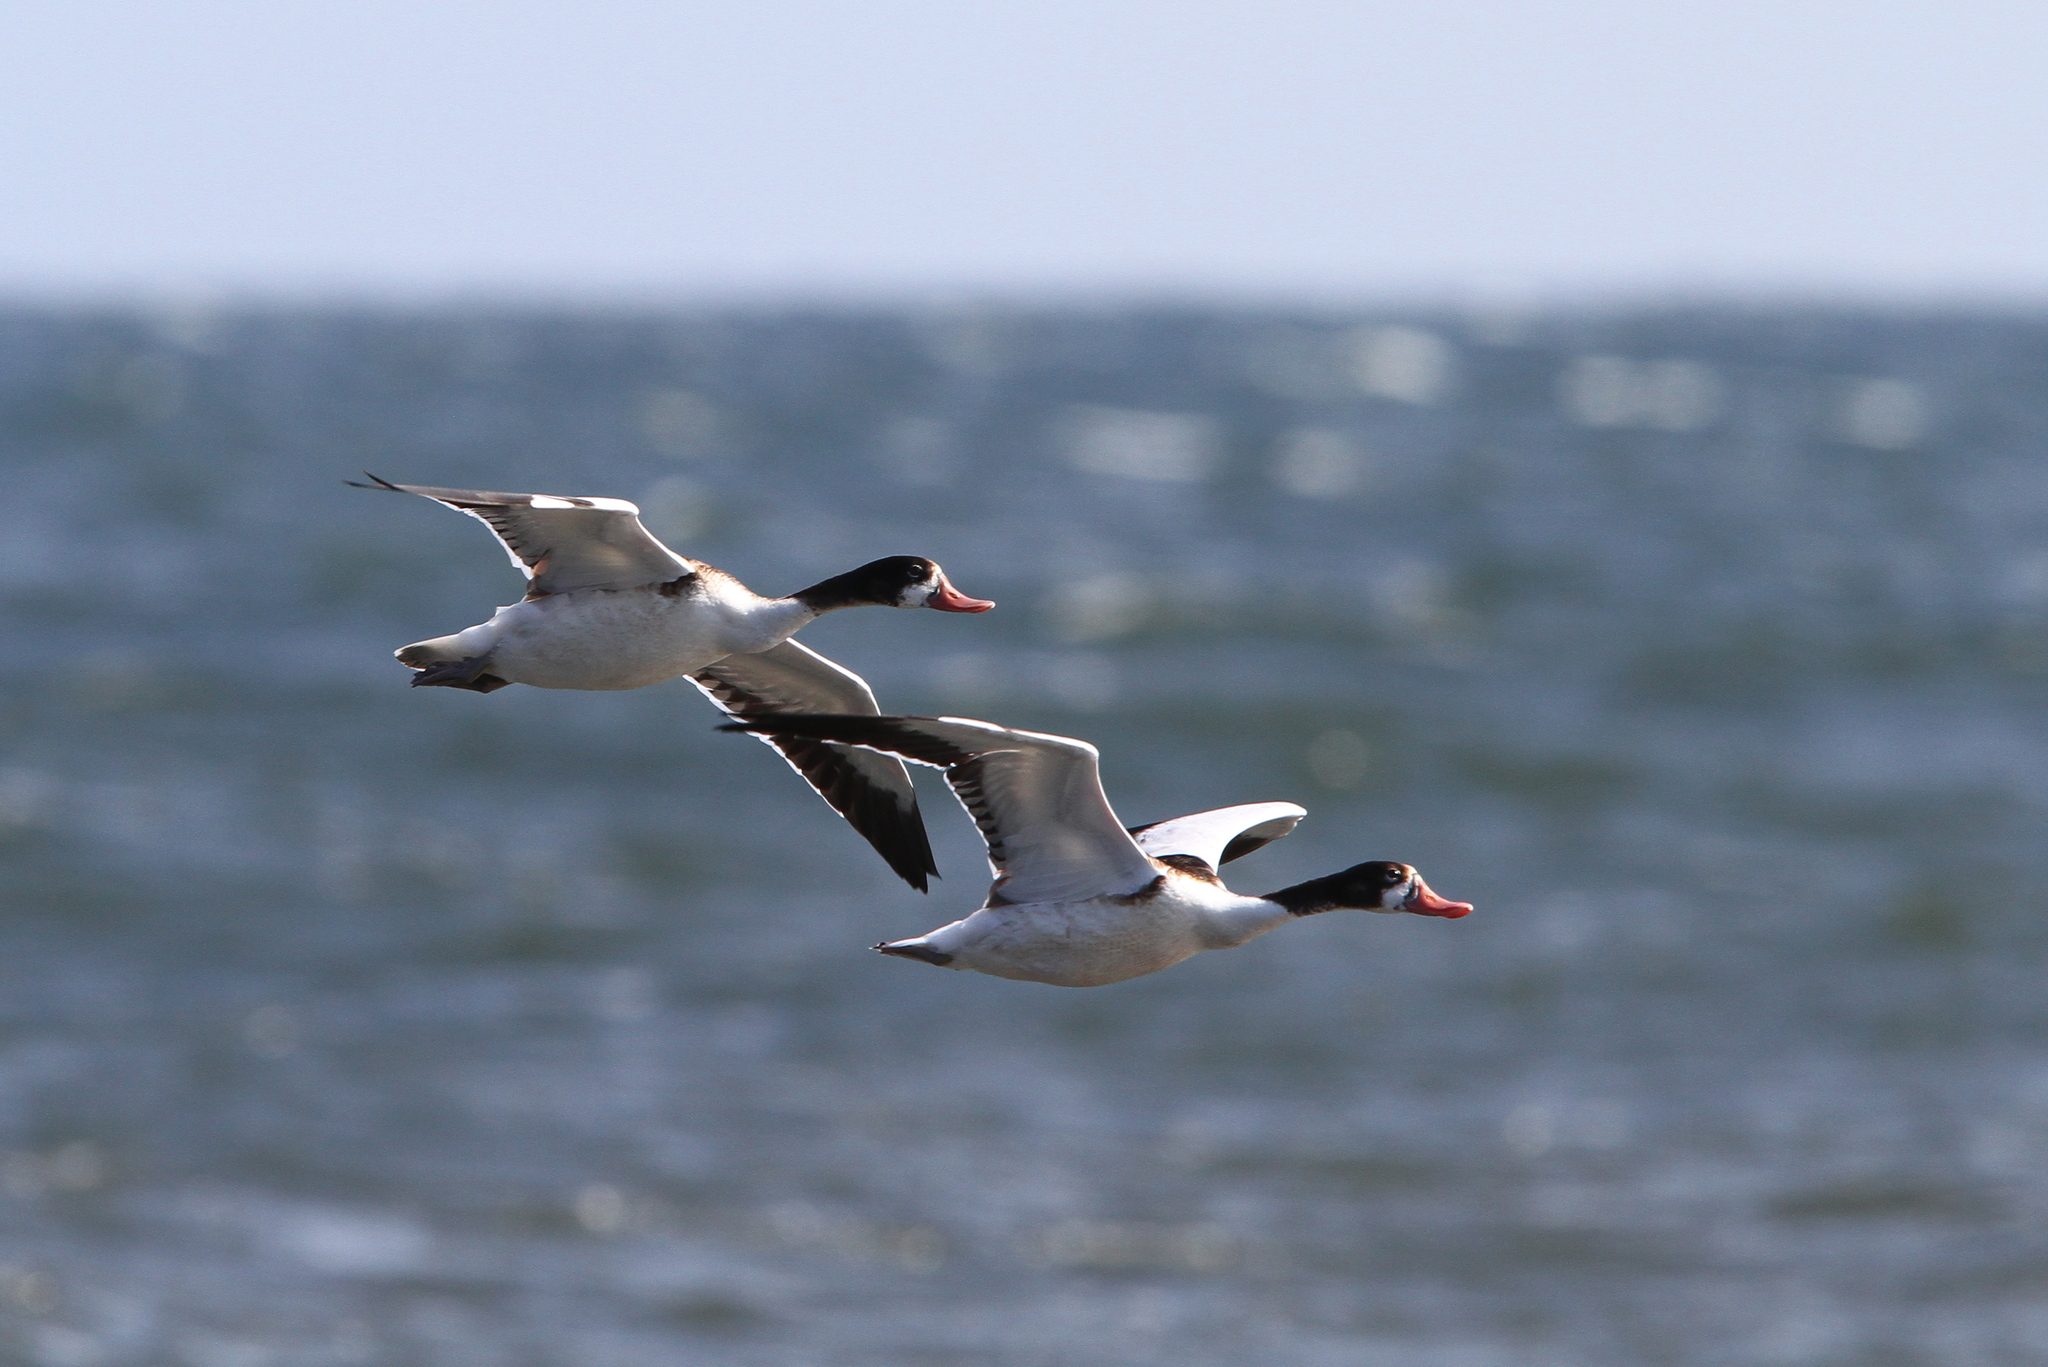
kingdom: Animalia
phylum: Chordata
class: Aves
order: Anseriformes
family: Anatidae
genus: Tadorna
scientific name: Tadorna tadorna
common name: Common shelduck
